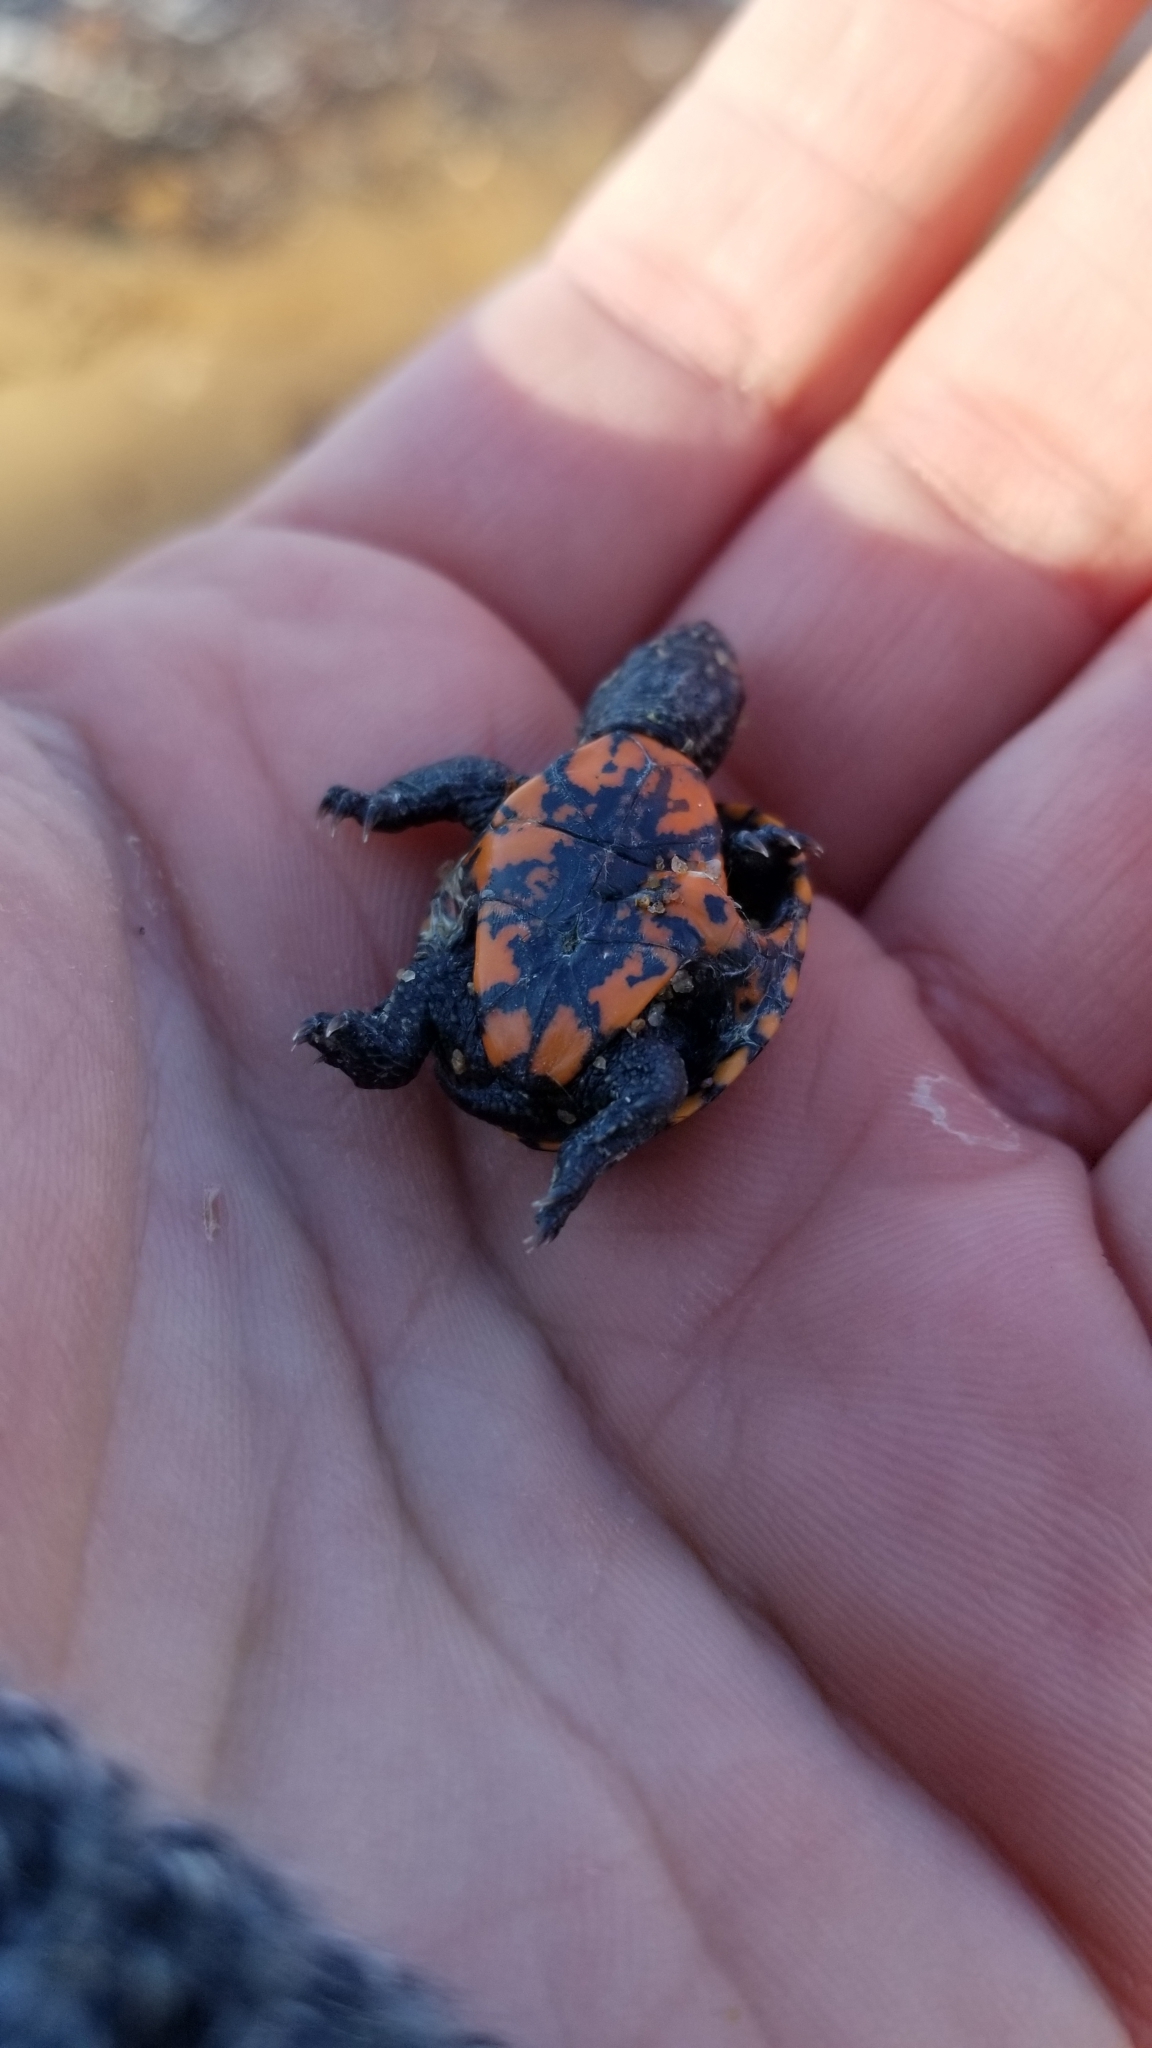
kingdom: Animalia
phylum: Chordata
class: Testudines
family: Kinosternidae
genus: Kinosternon
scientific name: Kinosternon subrubrum
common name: Eastern mud turtle
